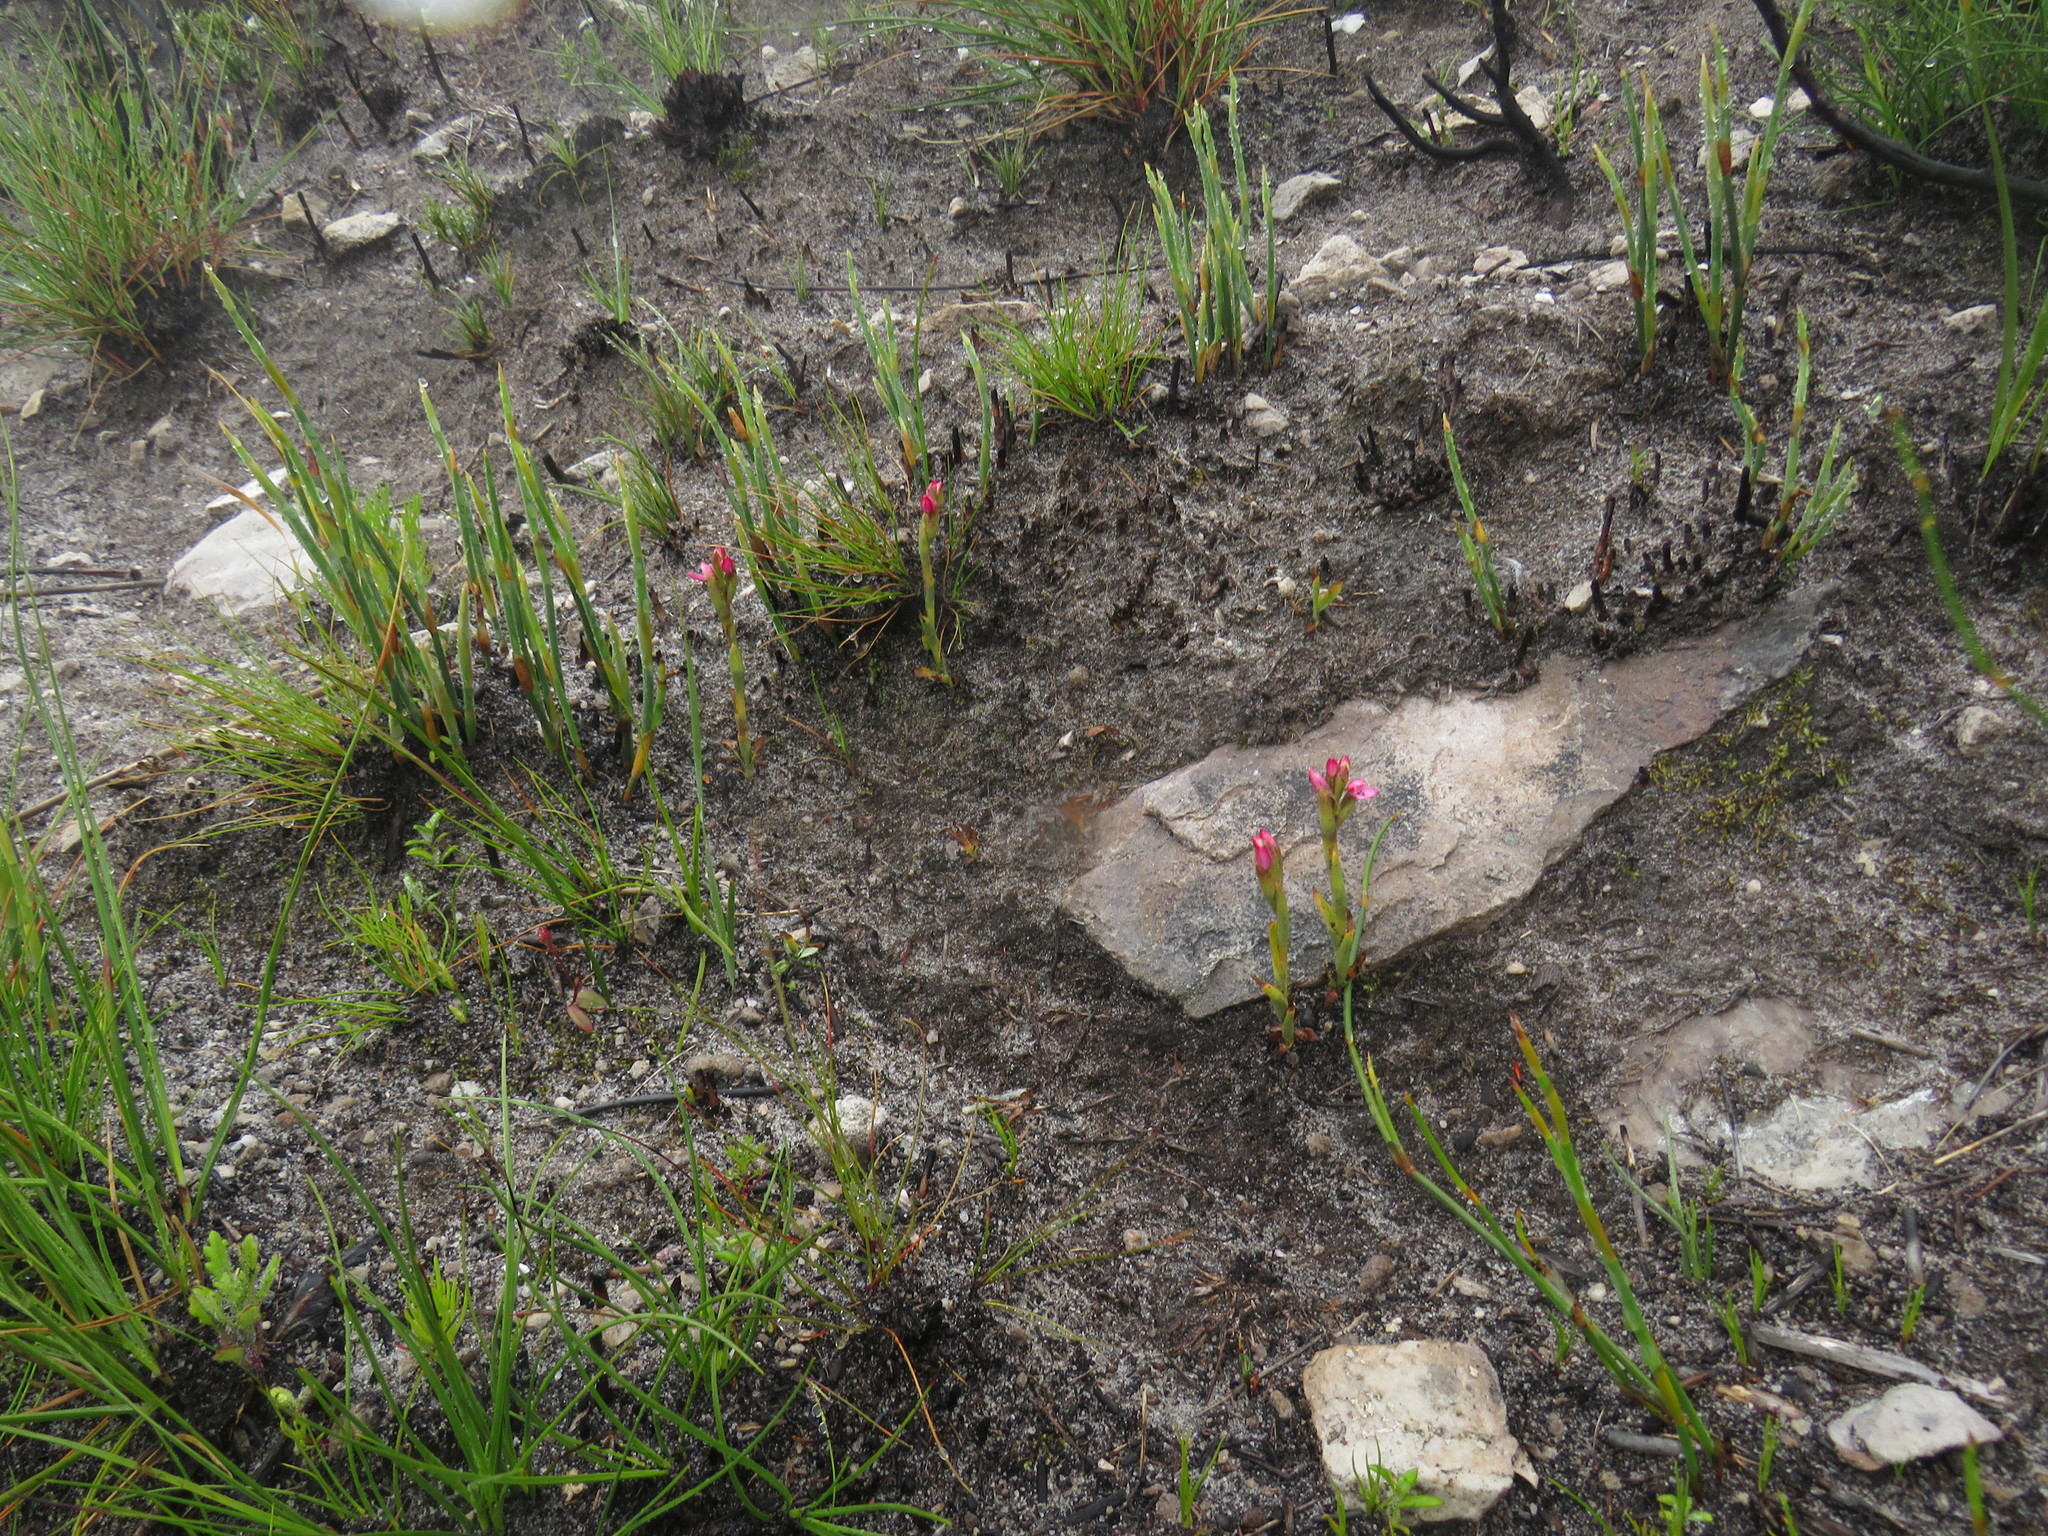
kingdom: Plantae
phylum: Tracheophyta
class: Liliopsida
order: Asparagales
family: Orchidaceae
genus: Disa
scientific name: Disa vaginata
